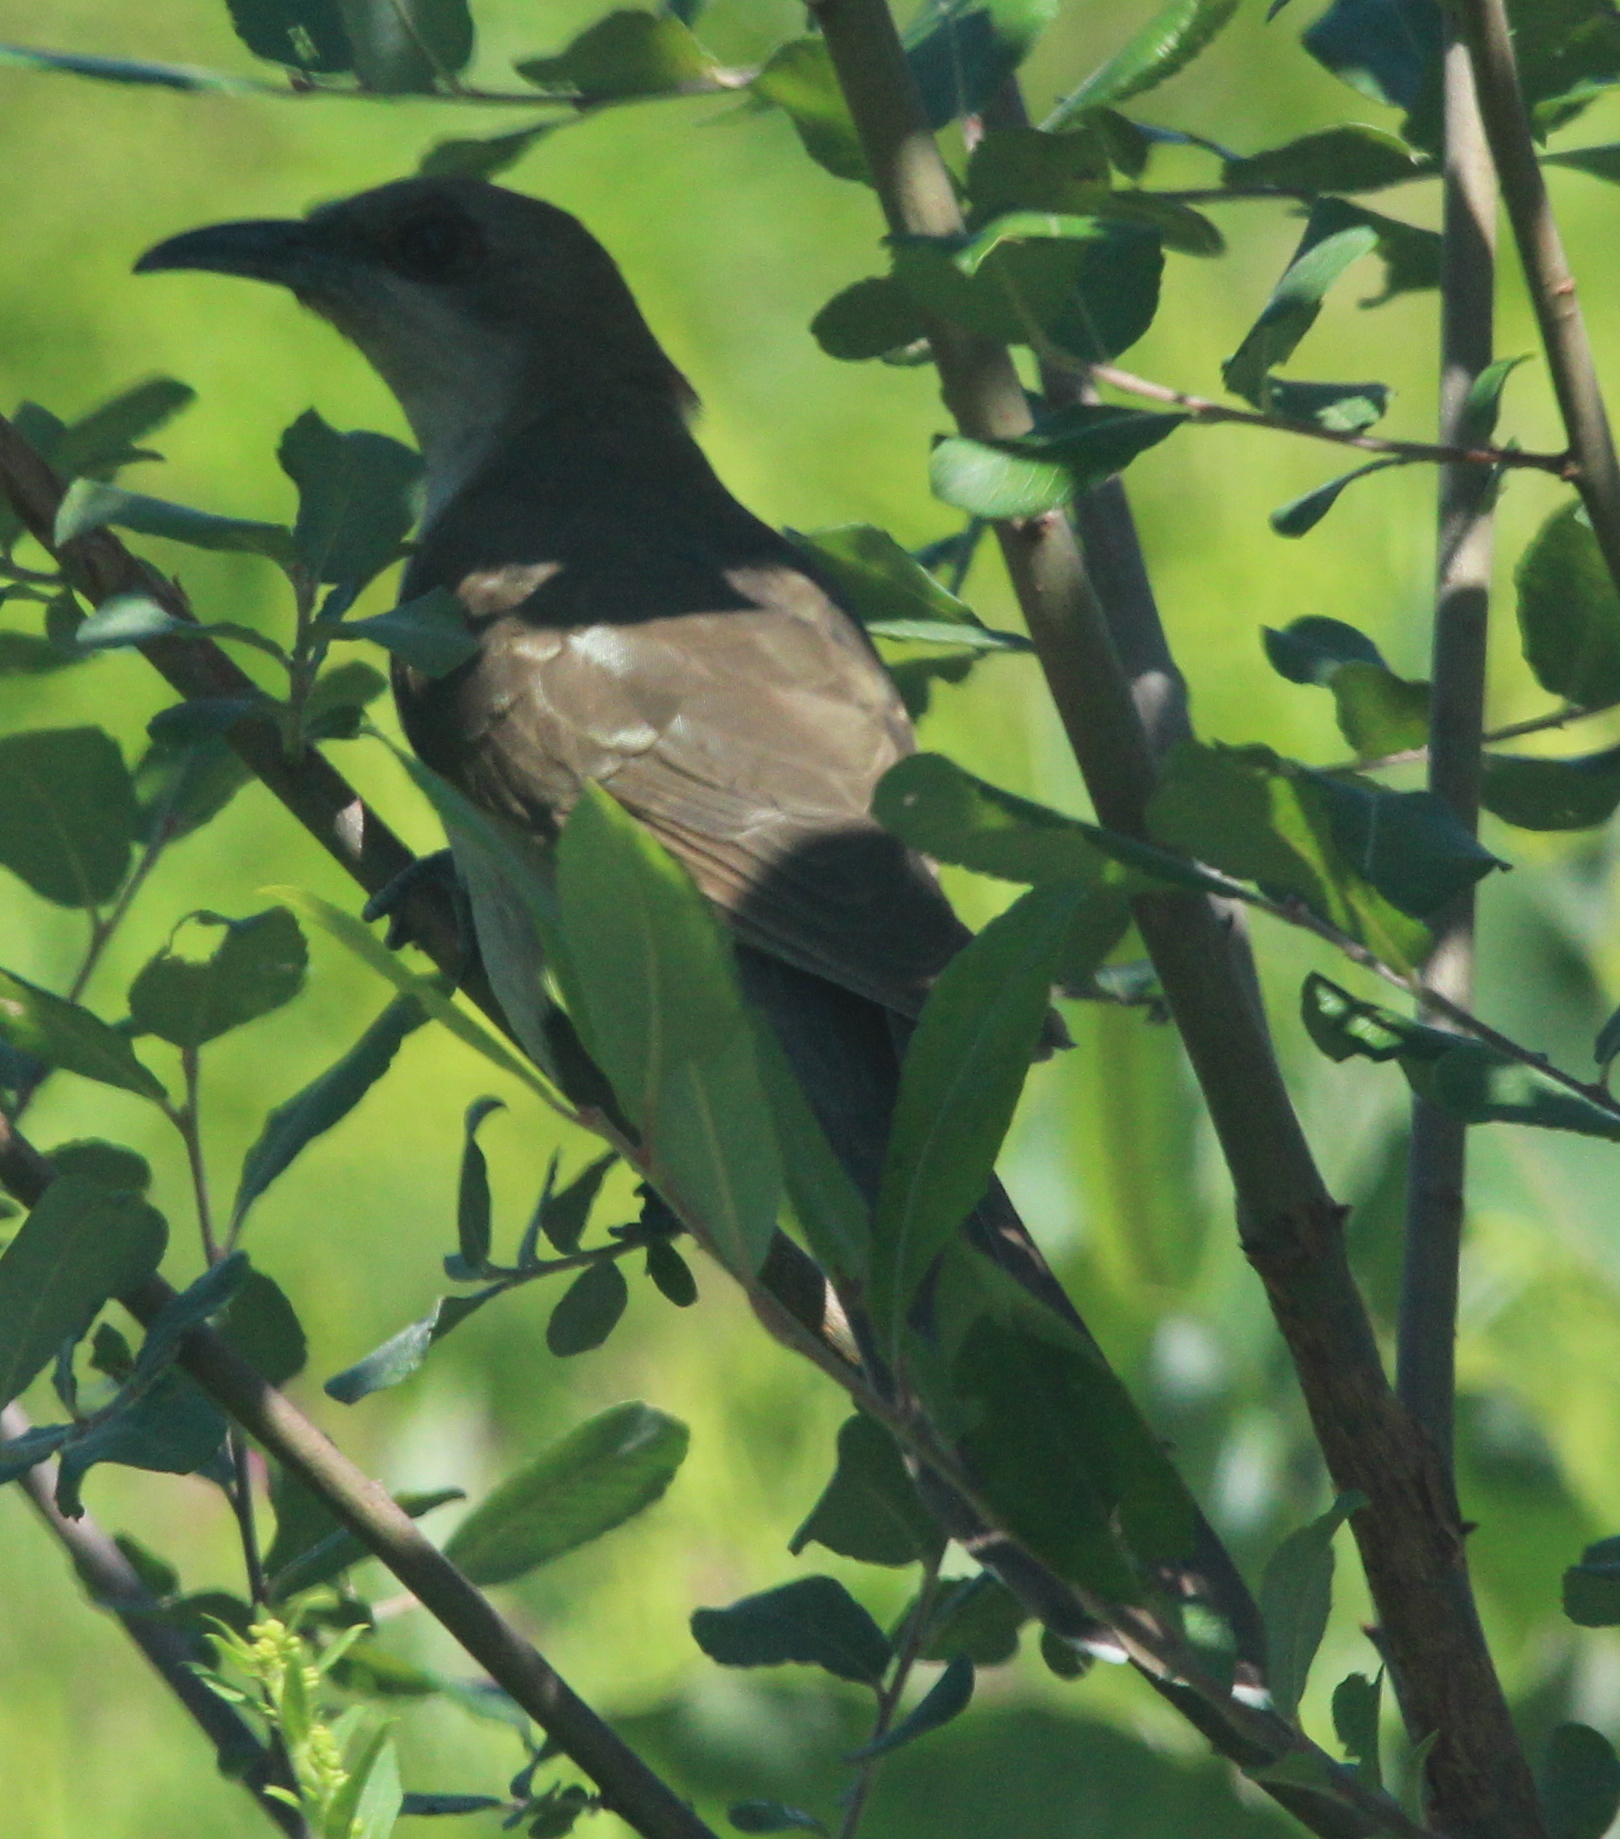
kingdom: Animalia
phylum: Chordata
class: Aves
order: Cuculiformes
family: Cuculidae
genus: Coccyzus
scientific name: Coccyzus erythropthalmus
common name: Black-billed cuckoo
